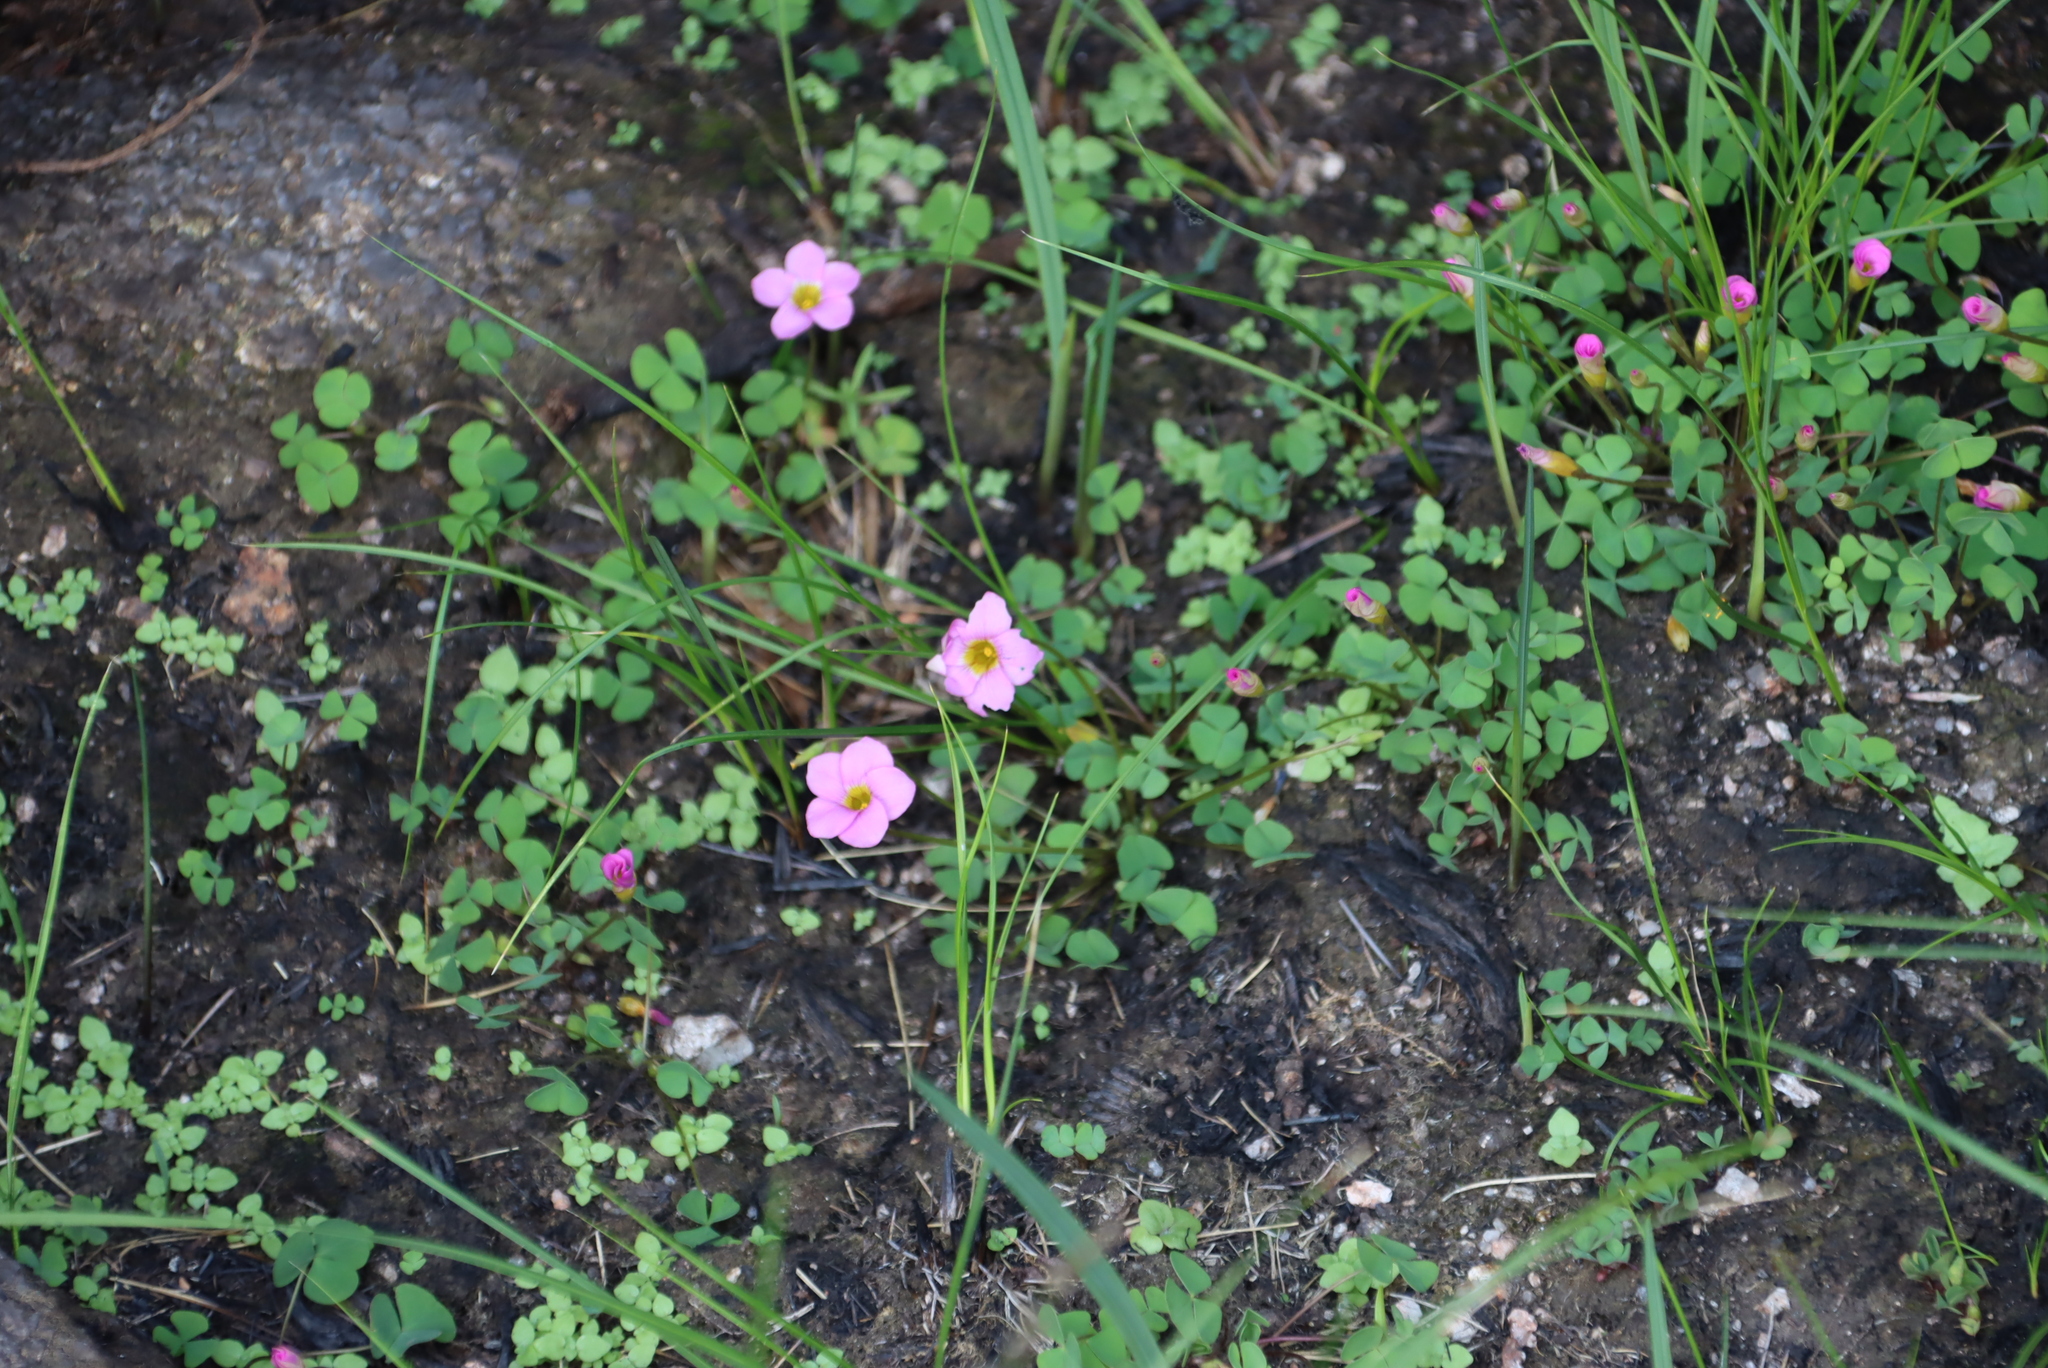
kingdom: Plantae
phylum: Tracheophyta
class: Magnoliopsida
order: Oxalidales
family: Oxalidaceae
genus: Oxalis
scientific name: Oxalis obliquifolia
